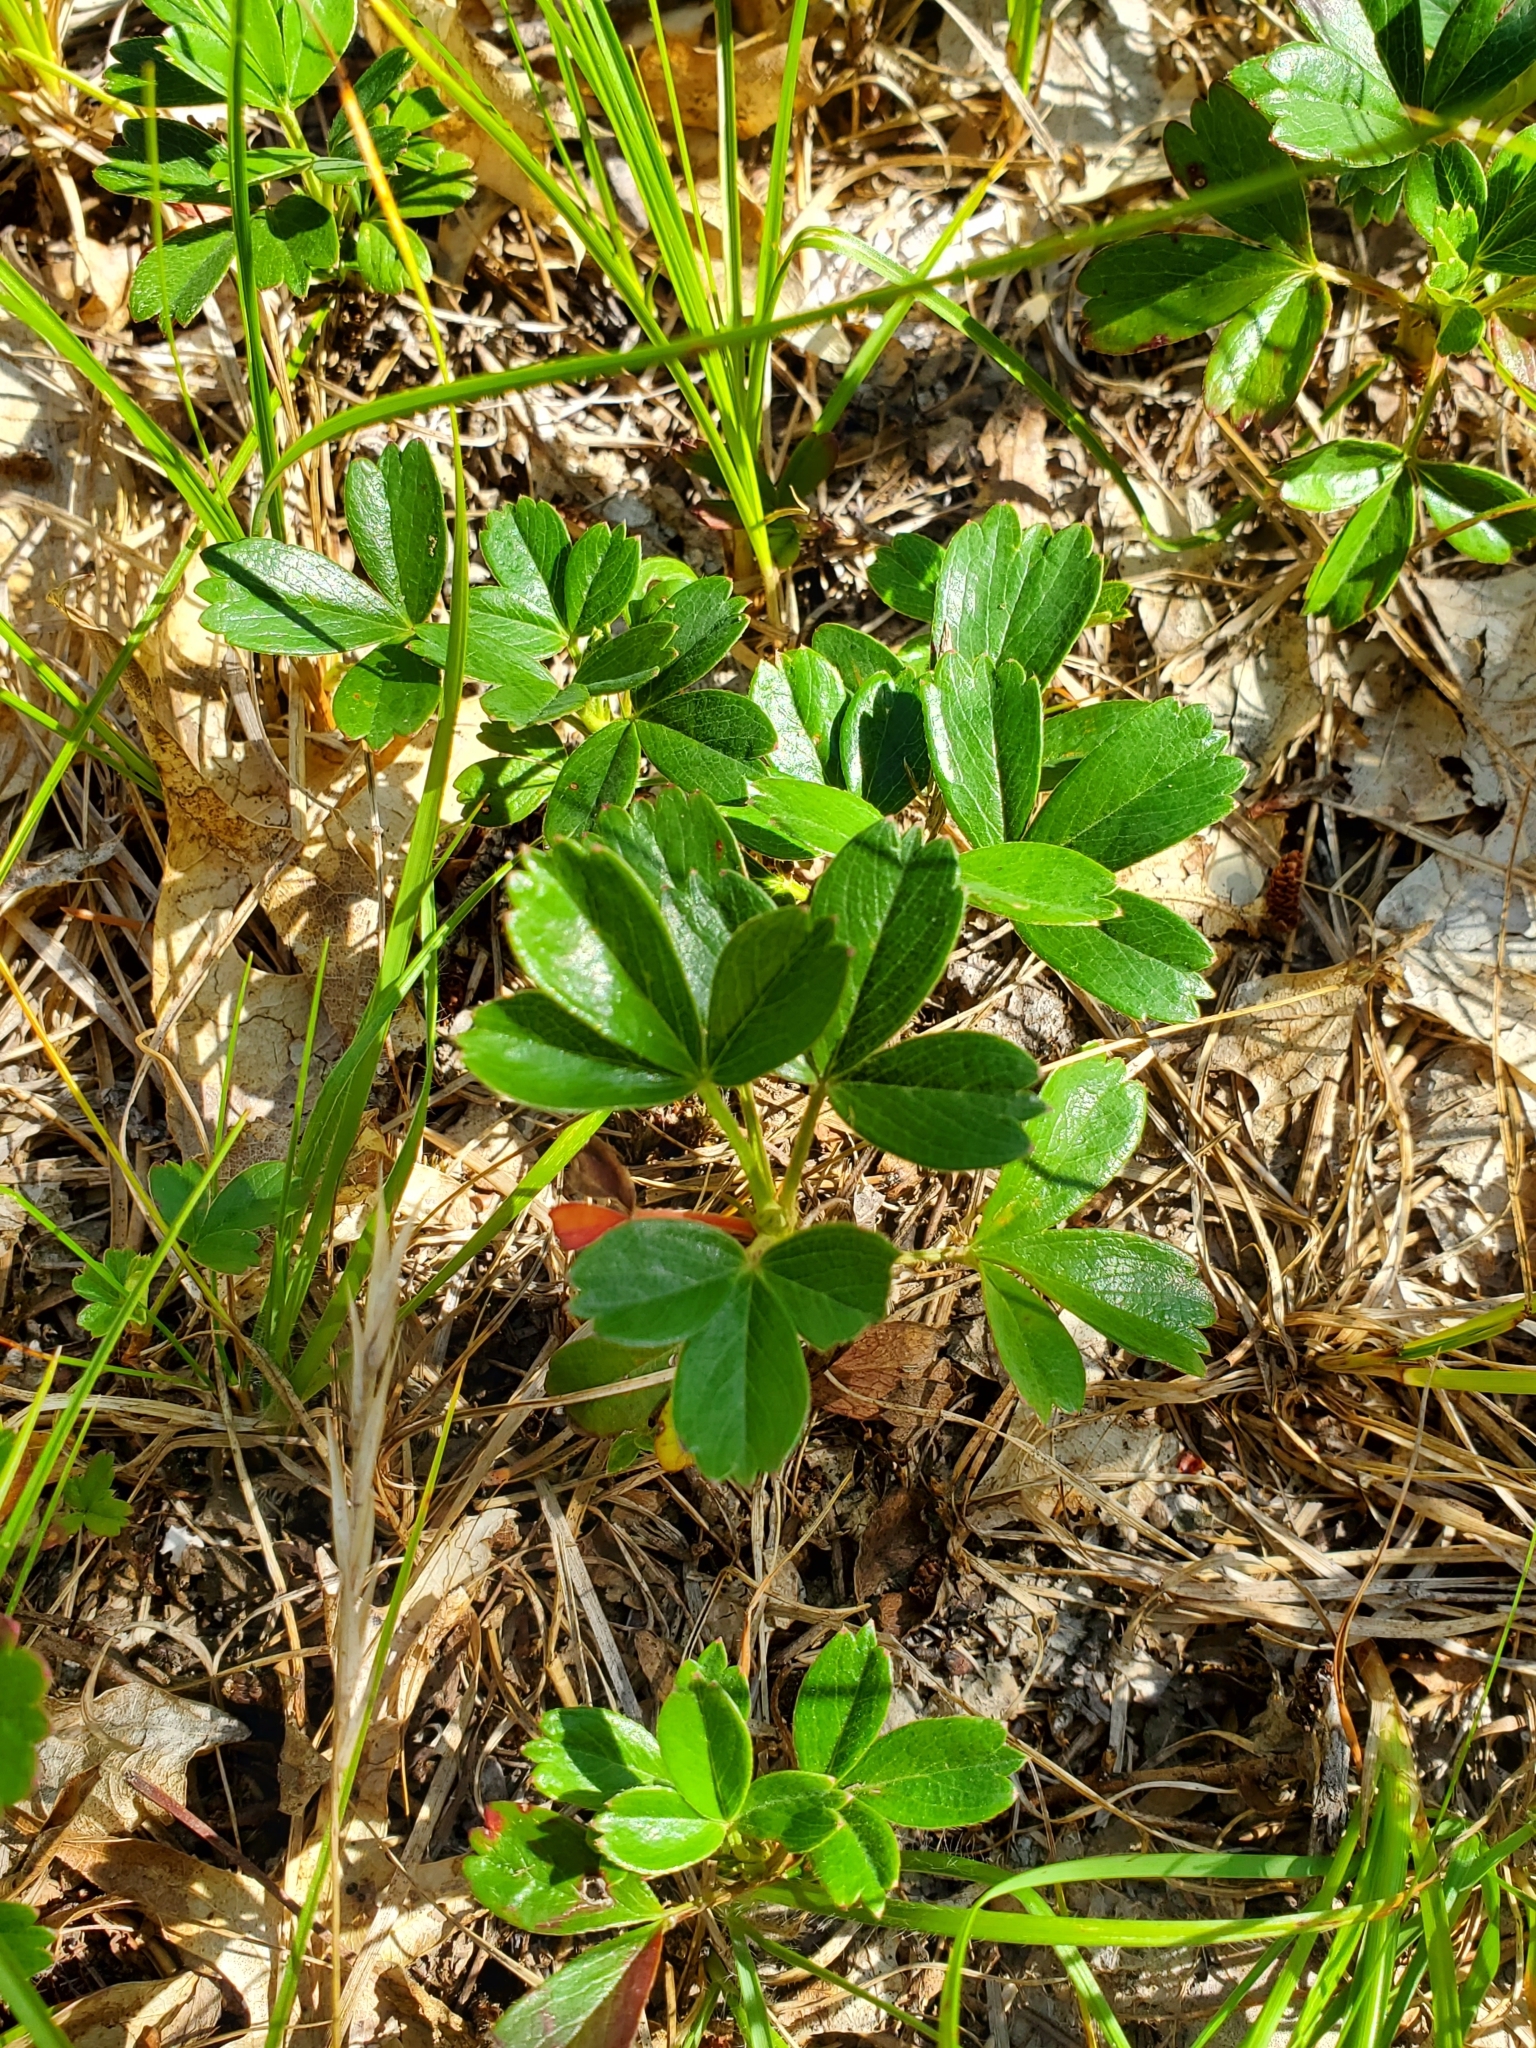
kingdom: Plantae
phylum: Tracheophyta
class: Magnoliopsida
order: Rosales
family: Rosaceae
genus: Sibbaldia
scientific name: Sibbaldia tridentata
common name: Three-toothed cinquefoil
